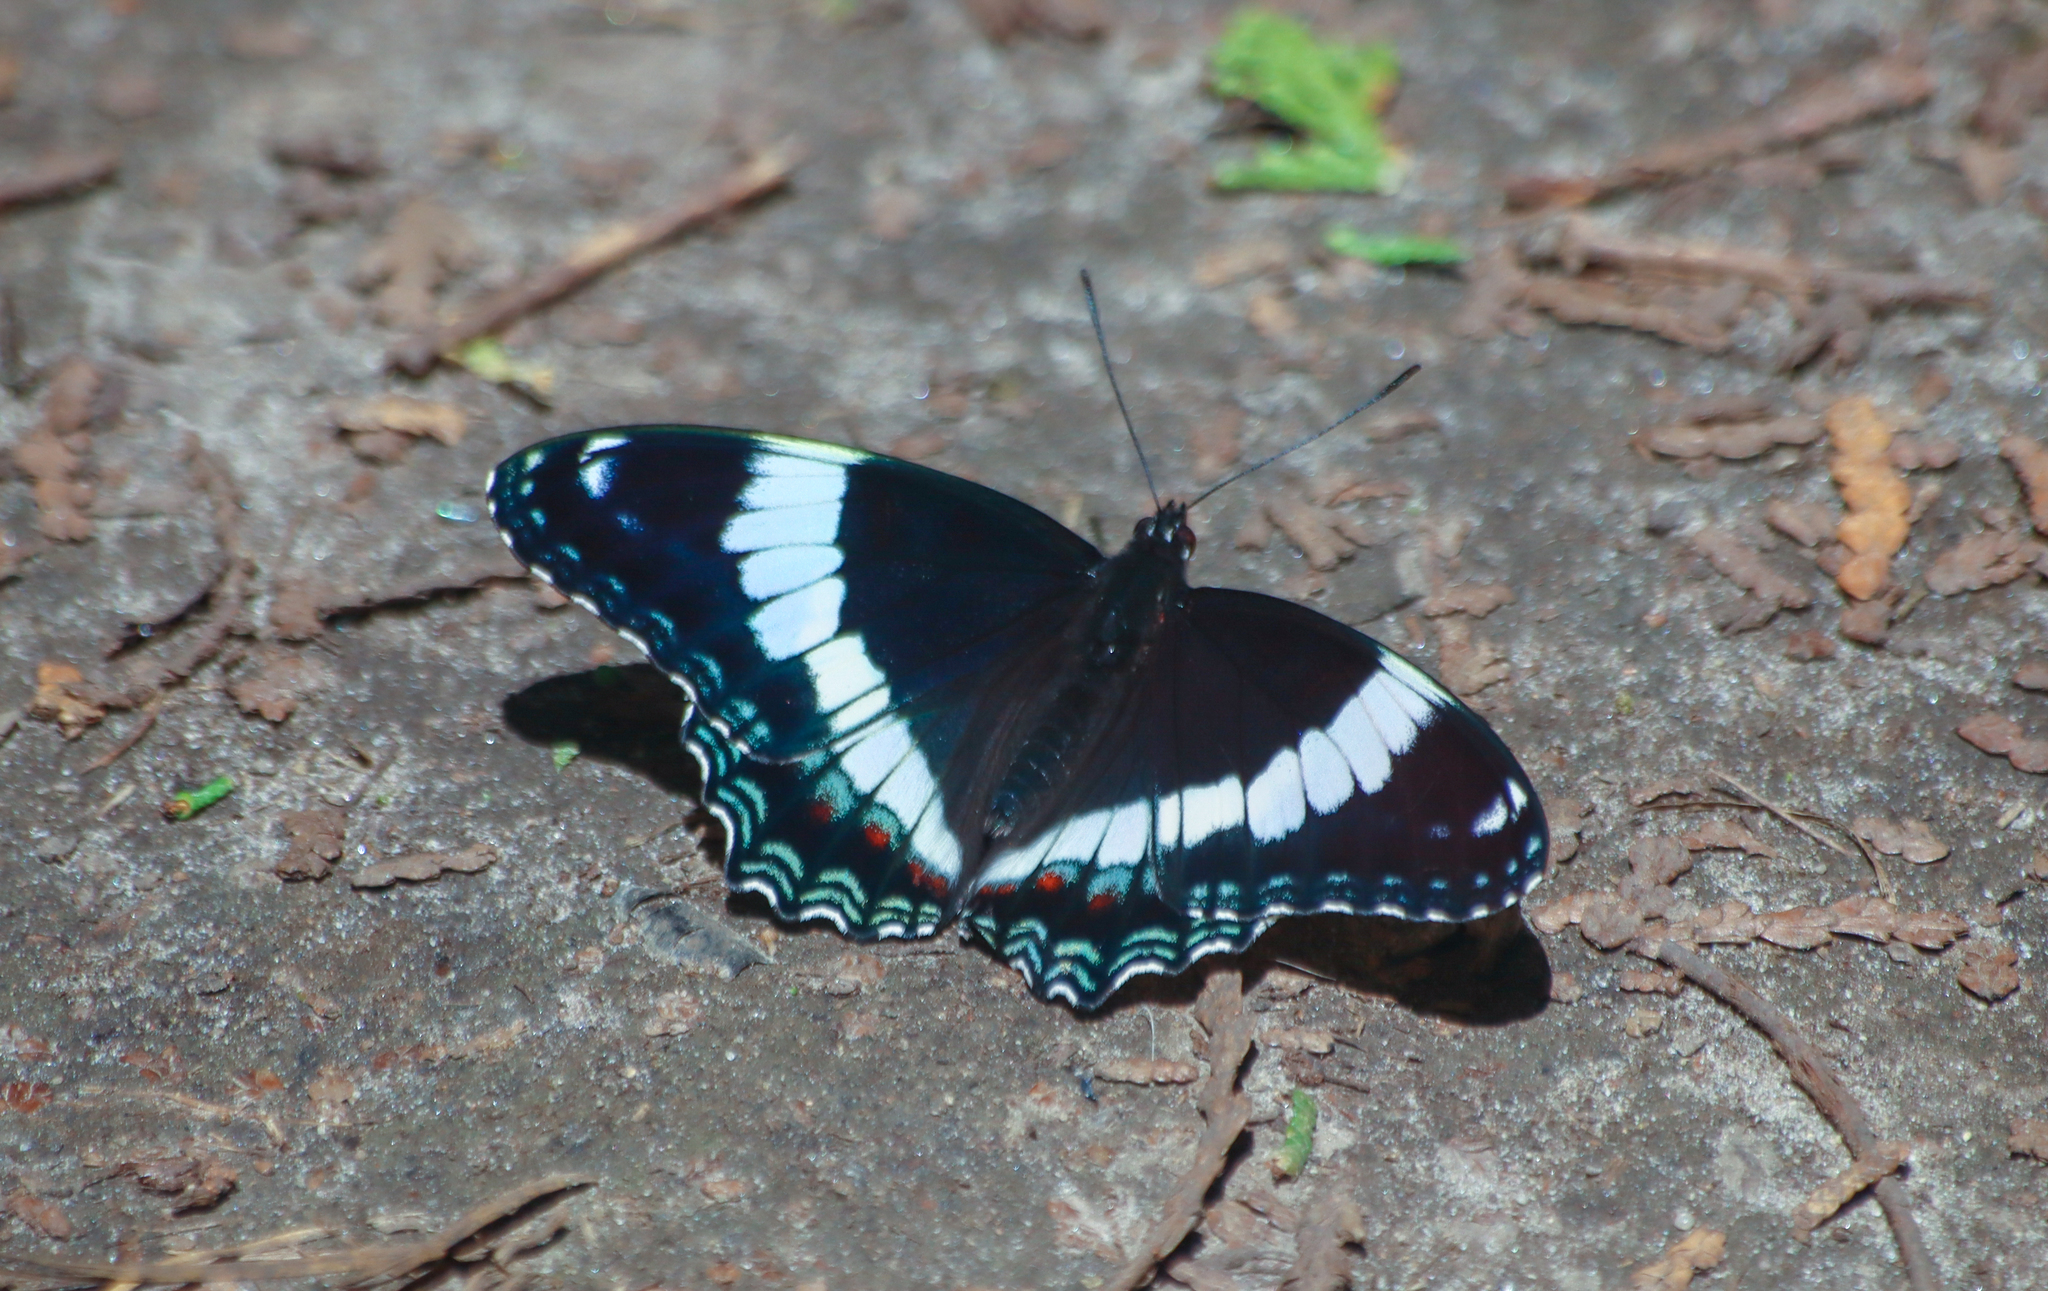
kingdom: Animalia
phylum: Arthropoda
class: Insecta
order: Lepidoptera
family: Nymphalidae
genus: Limenitis
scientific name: Limenitis arthemis
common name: Red-spotted admiral
